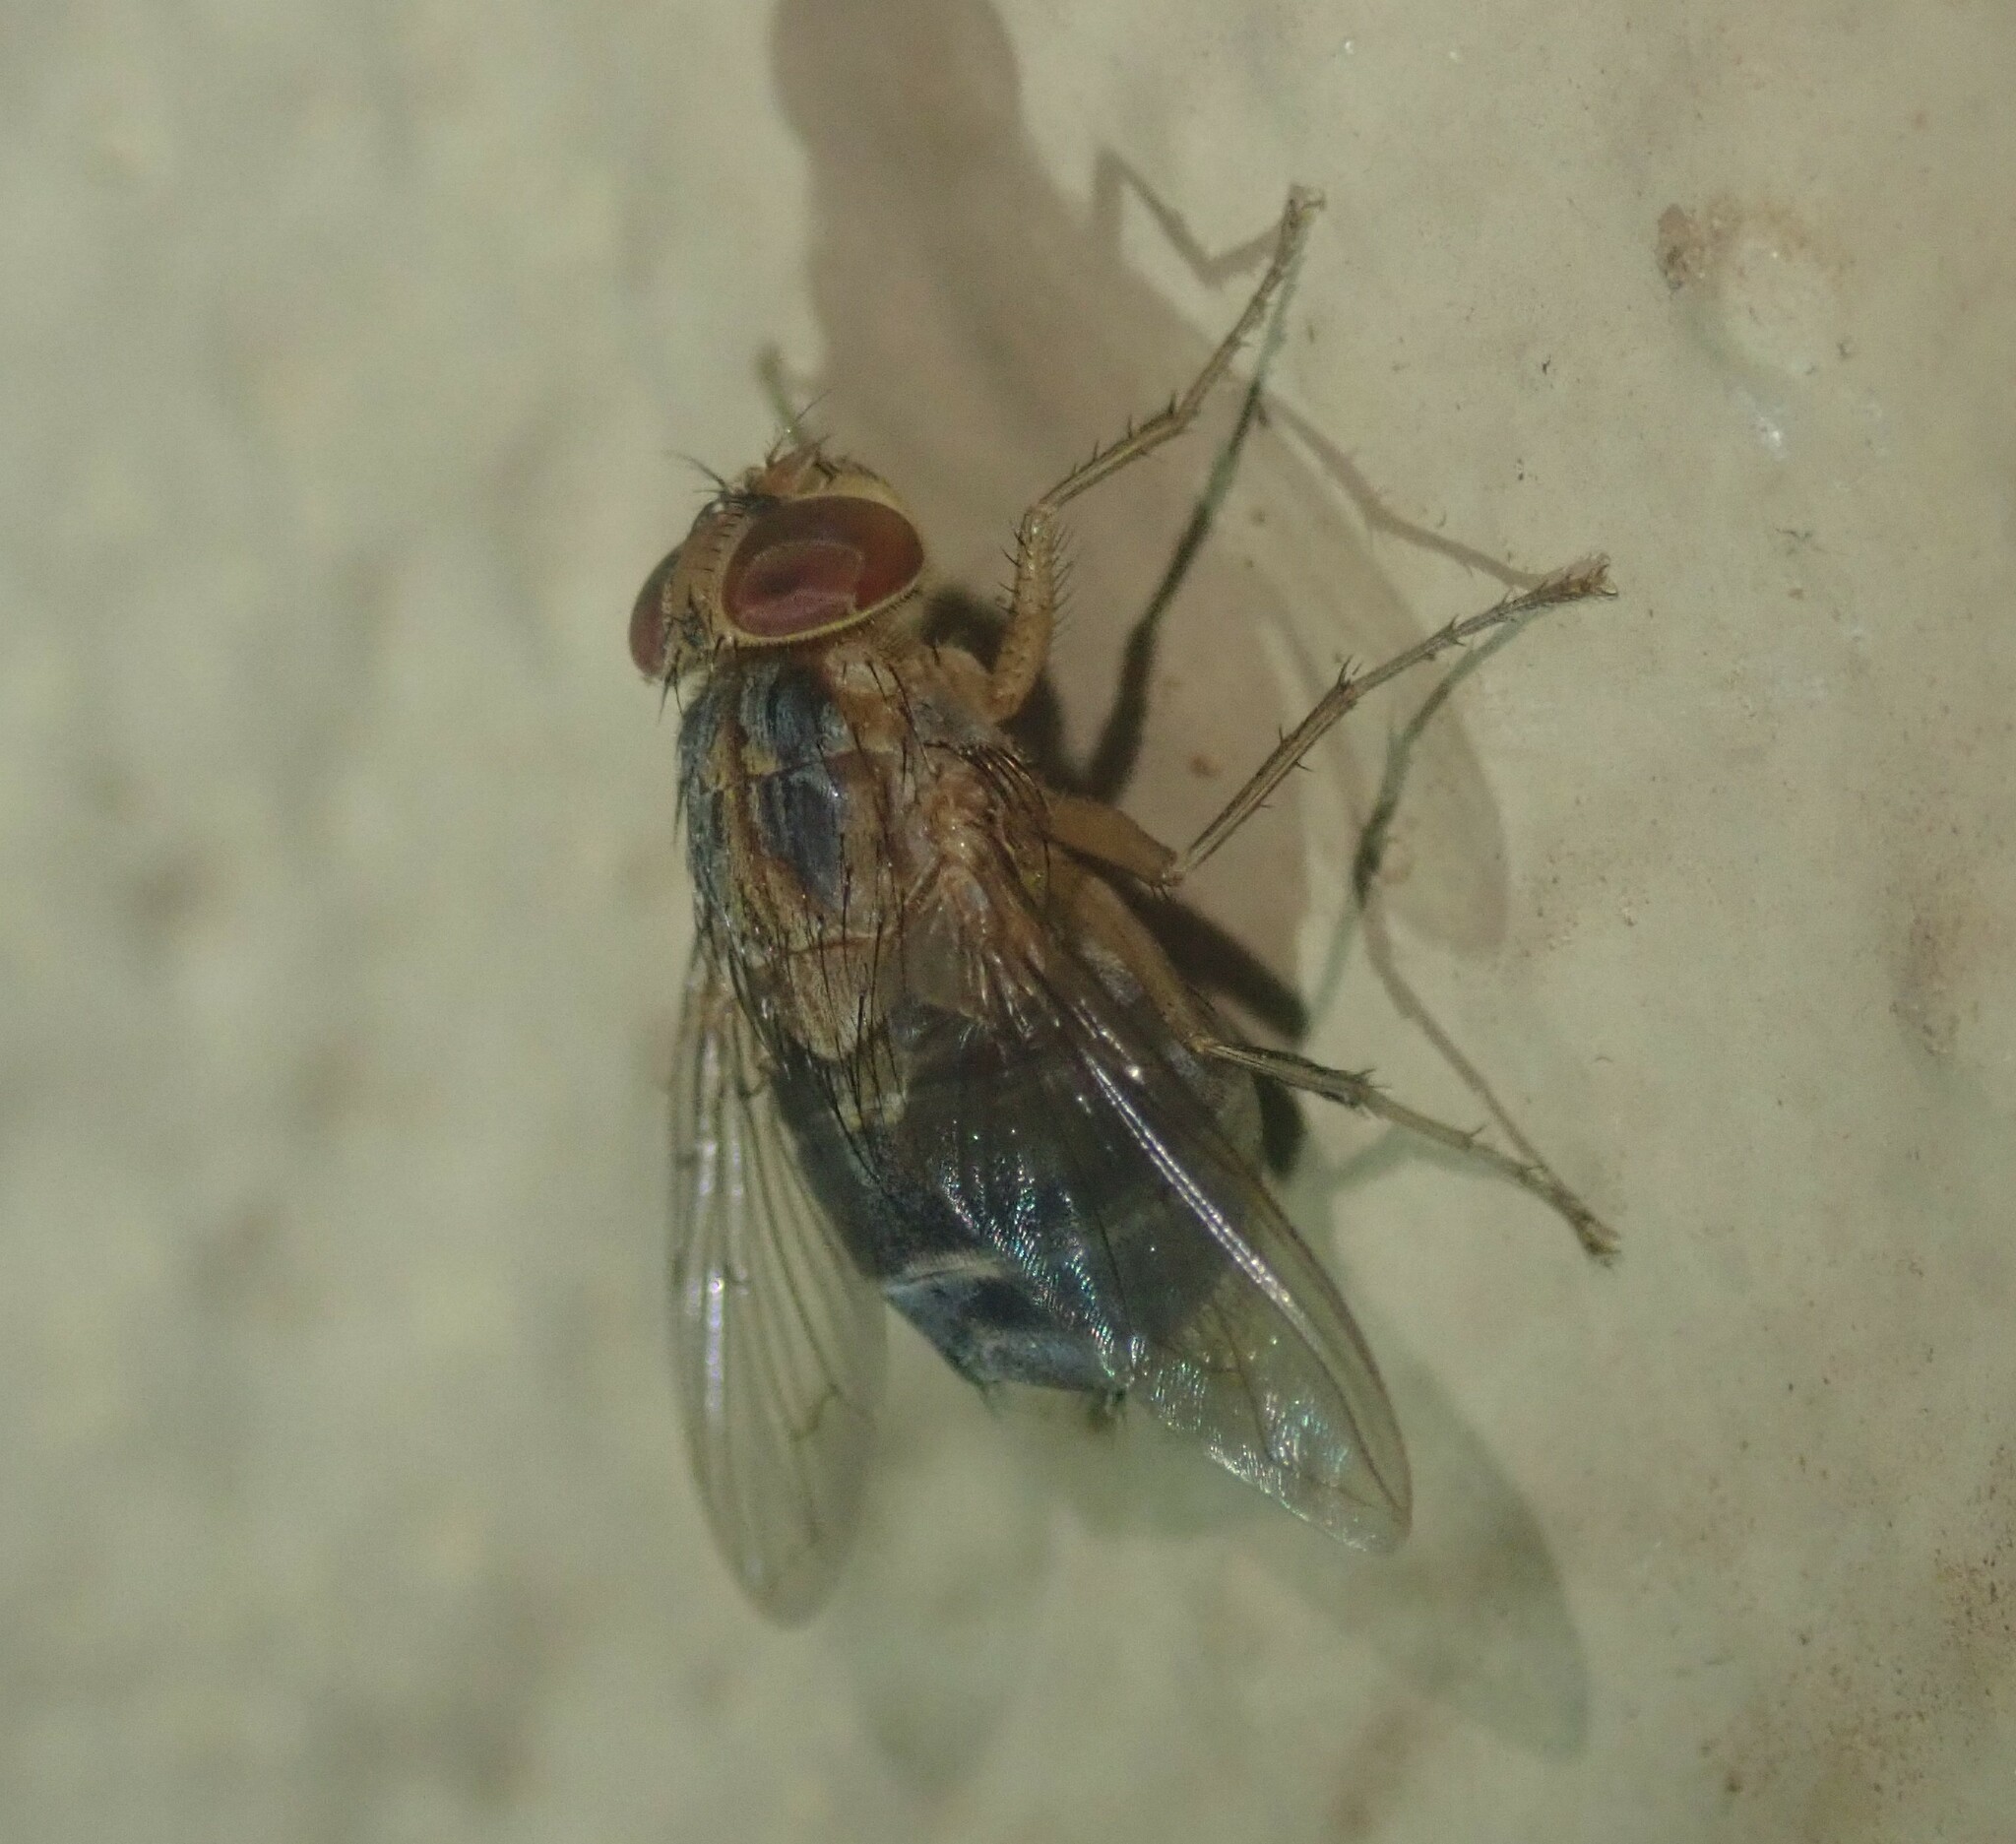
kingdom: Animalia
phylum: Arthropoda
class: Insecta
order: Diptera
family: Calliphoridae
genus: Cordylobia
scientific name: Cordylobia anthropophaga
